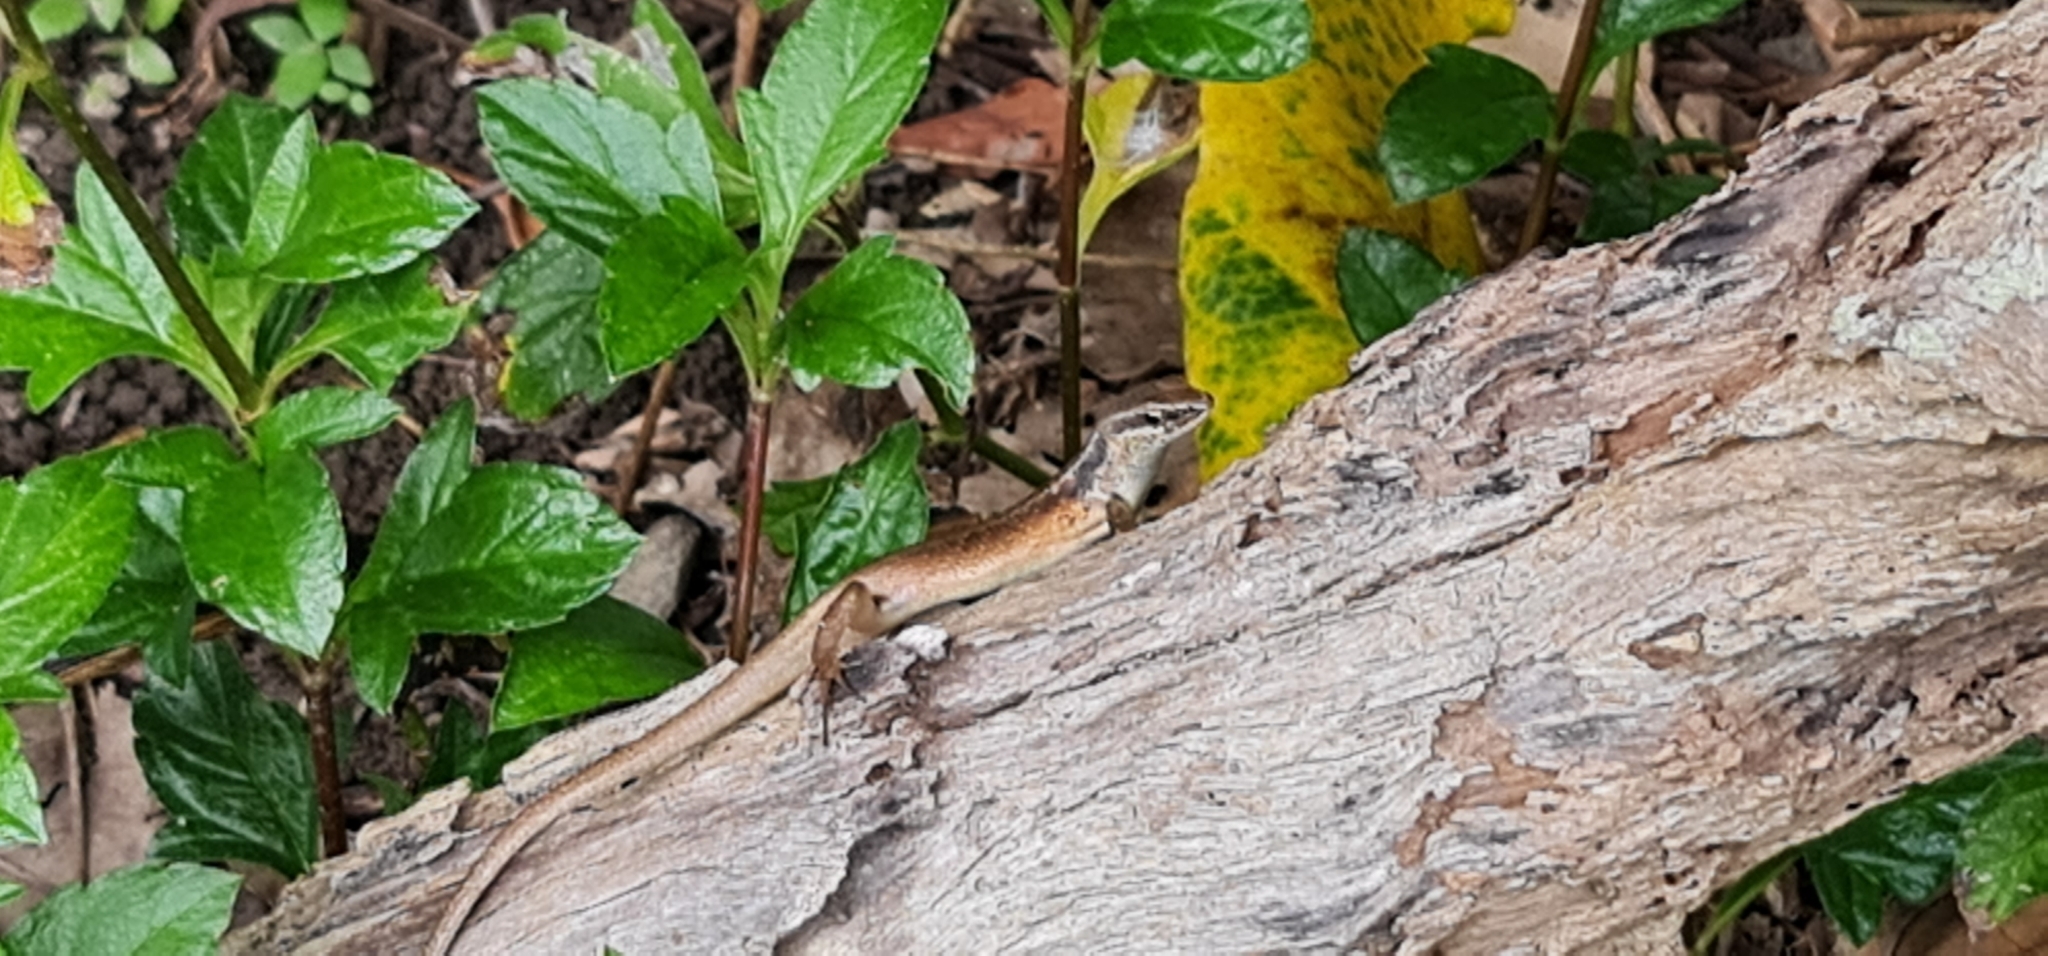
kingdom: Animalia
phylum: Chordata
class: Squamata
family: Scincidae
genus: Carlia
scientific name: Carlia longipes
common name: Closed-litter rainbow-skink
